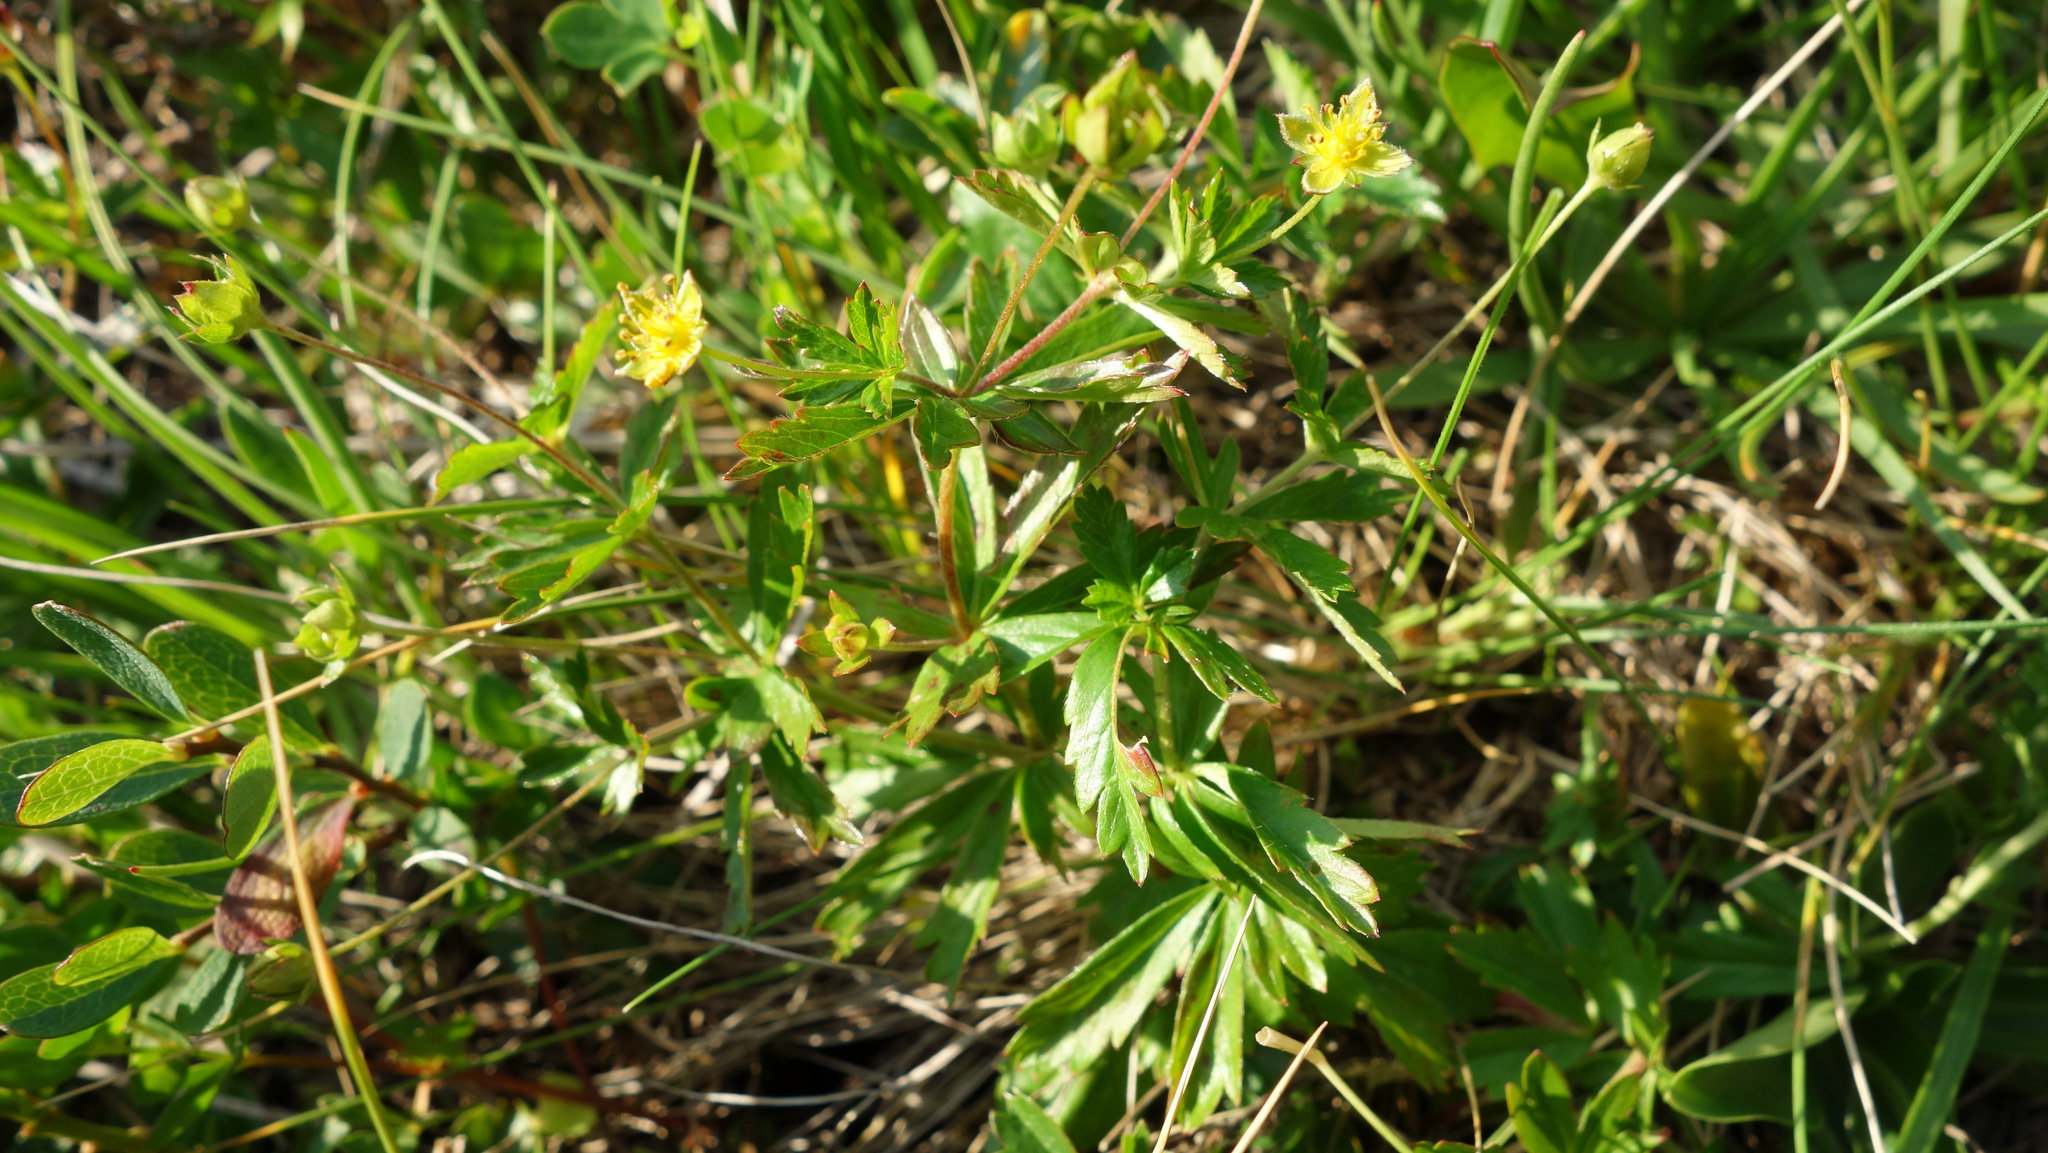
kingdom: Plantae
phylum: Tracheophyta
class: Magnoliopsida
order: Rosales
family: Rosaceae
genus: Potentilla
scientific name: Potentilla erecta
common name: Tormentil
